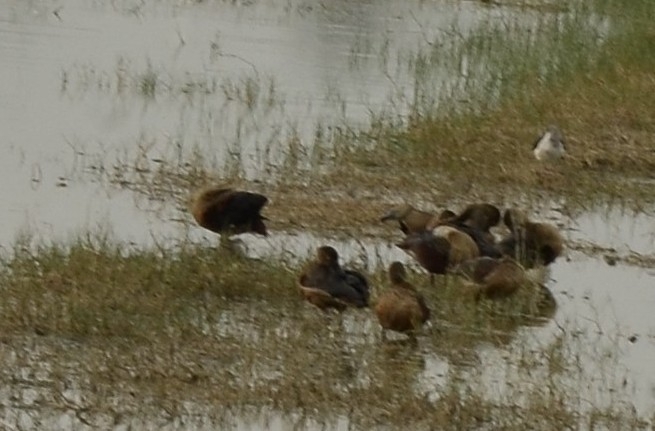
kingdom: Animalia
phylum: Chordata
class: Aves
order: Anseriformes
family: Anatidae
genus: Dendrocygna
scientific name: Dendrocygna javanica
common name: Lesser whistling-duck
